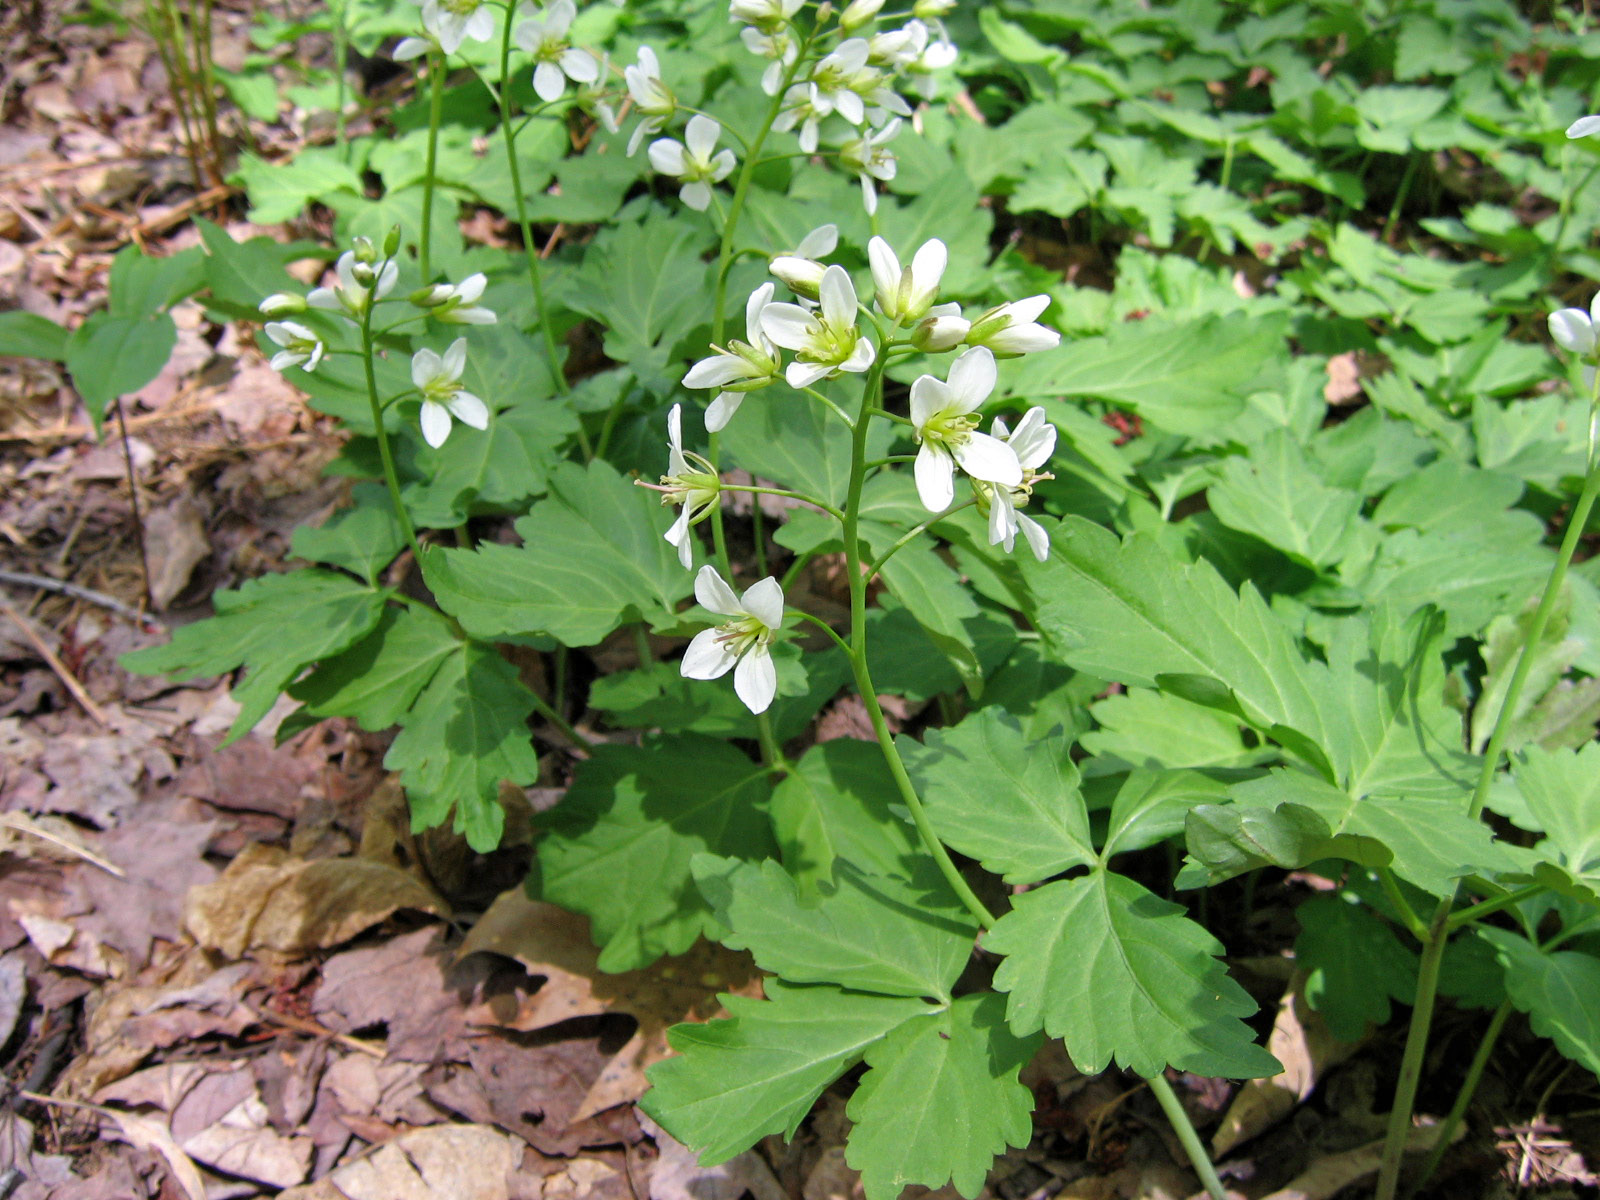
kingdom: Plantae
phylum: Tracheophyta
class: Magnoliopsida
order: Brassicales
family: Brassicaceae
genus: Cardamine
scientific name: Cardamine diphylla
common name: Broad-leaved toothwort
